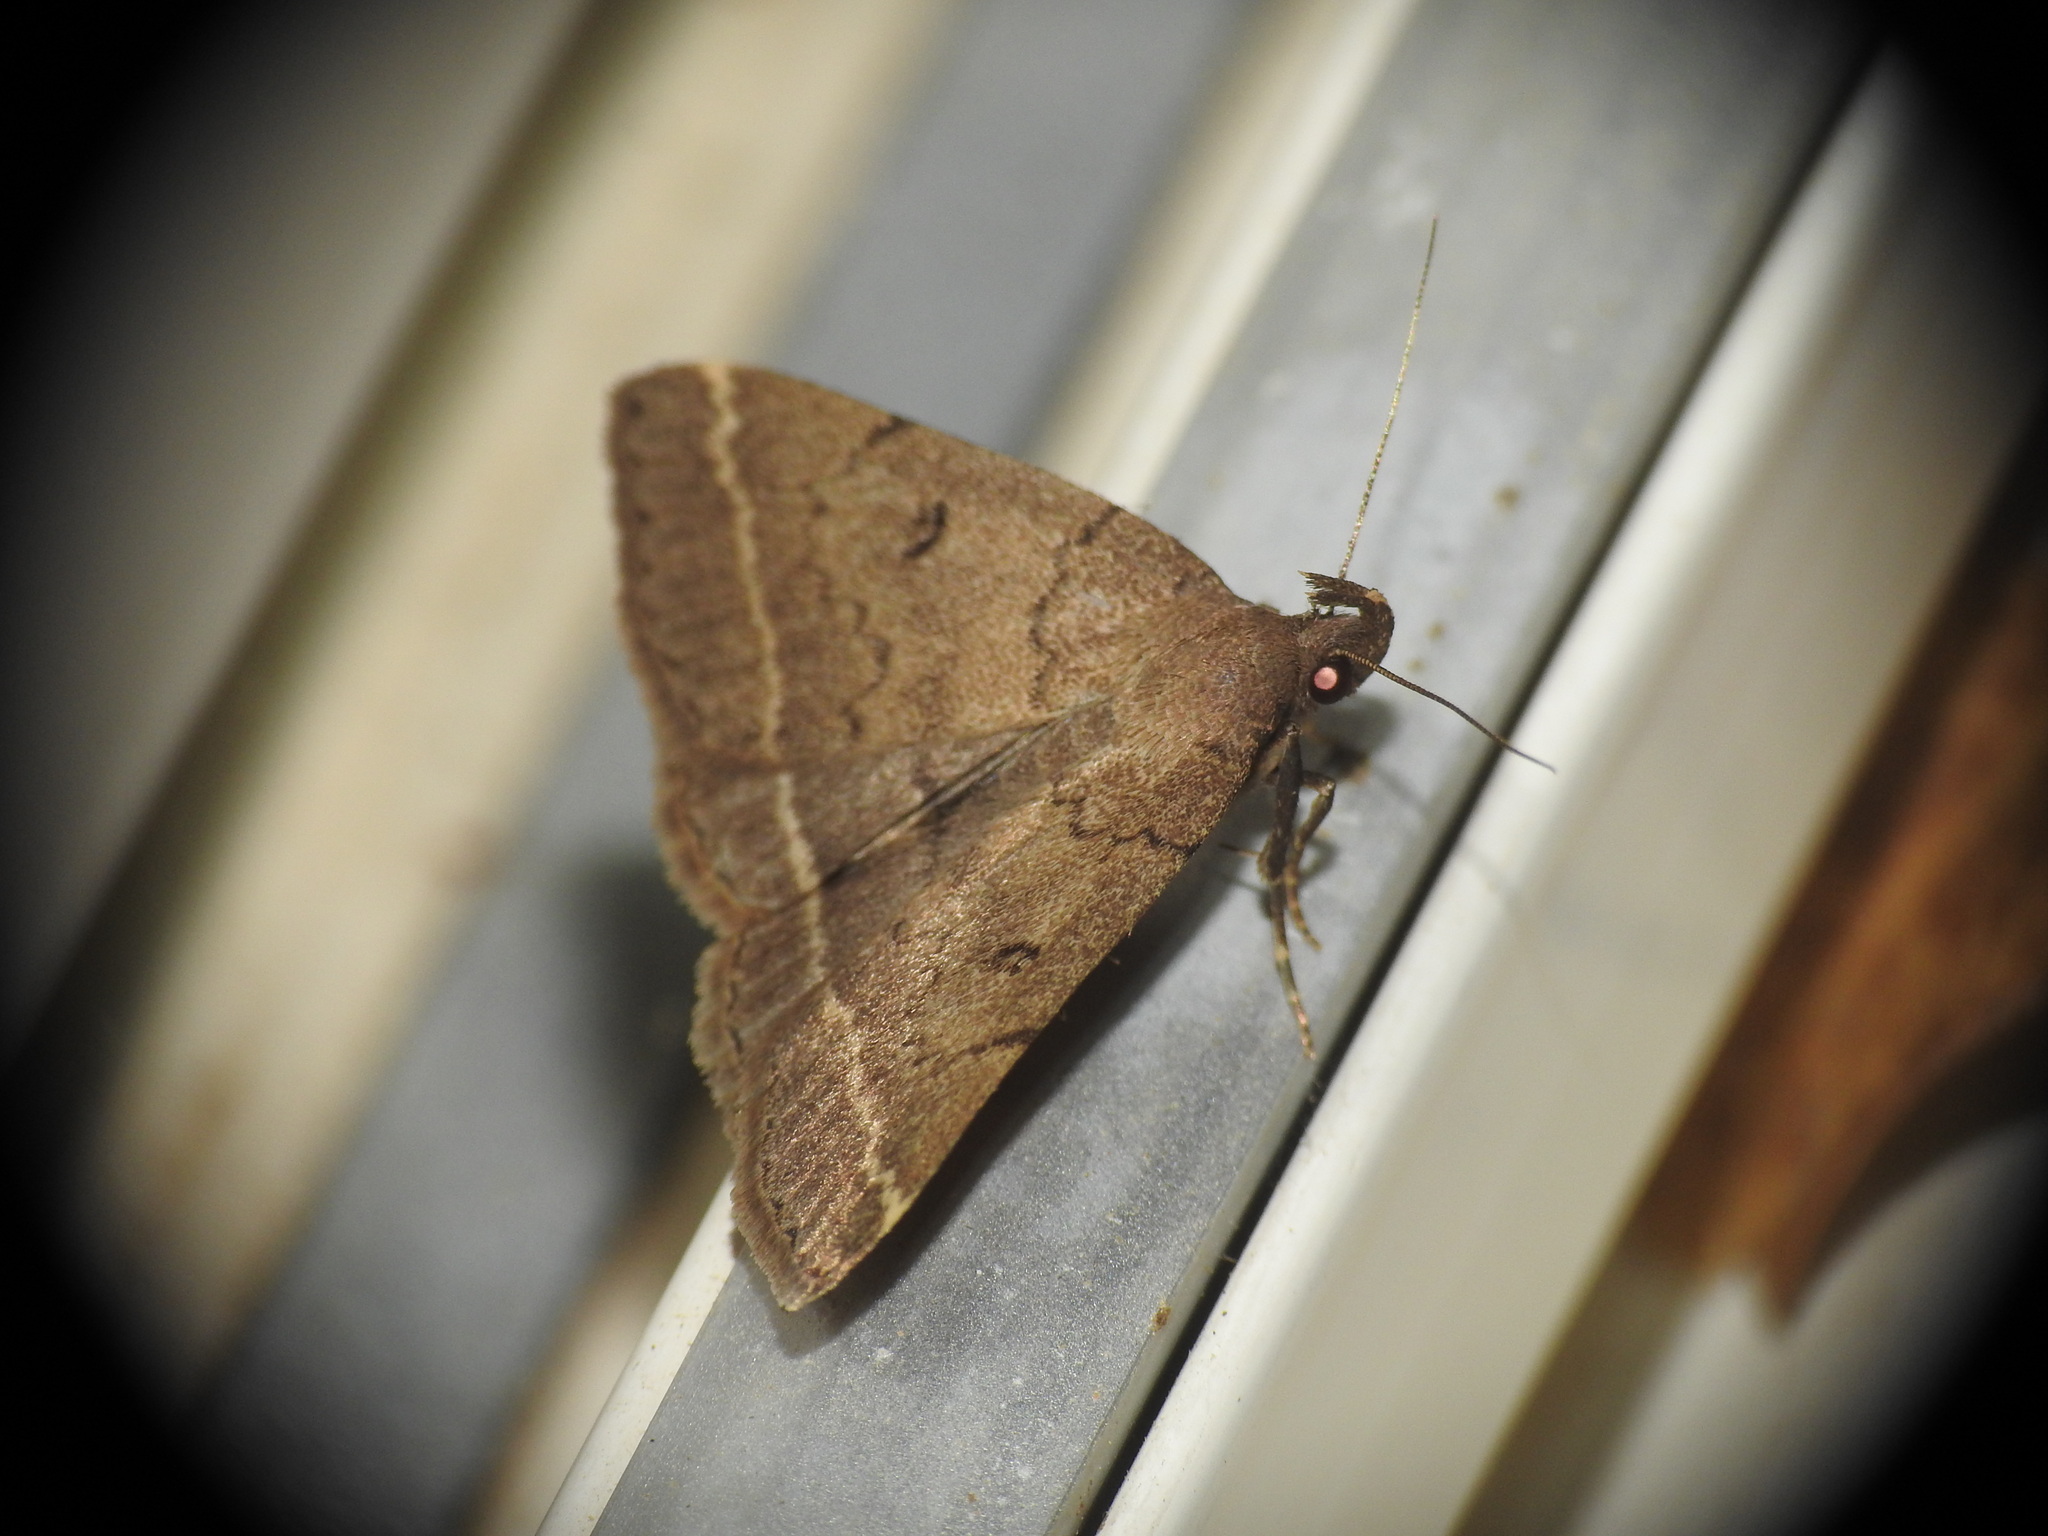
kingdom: Animalia
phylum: Arthropoda
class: Insecta
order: Lepidoptera
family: Erebidae
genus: Pechipogo
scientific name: Pechipogo plumigeralis
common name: Plumed fan-foot
